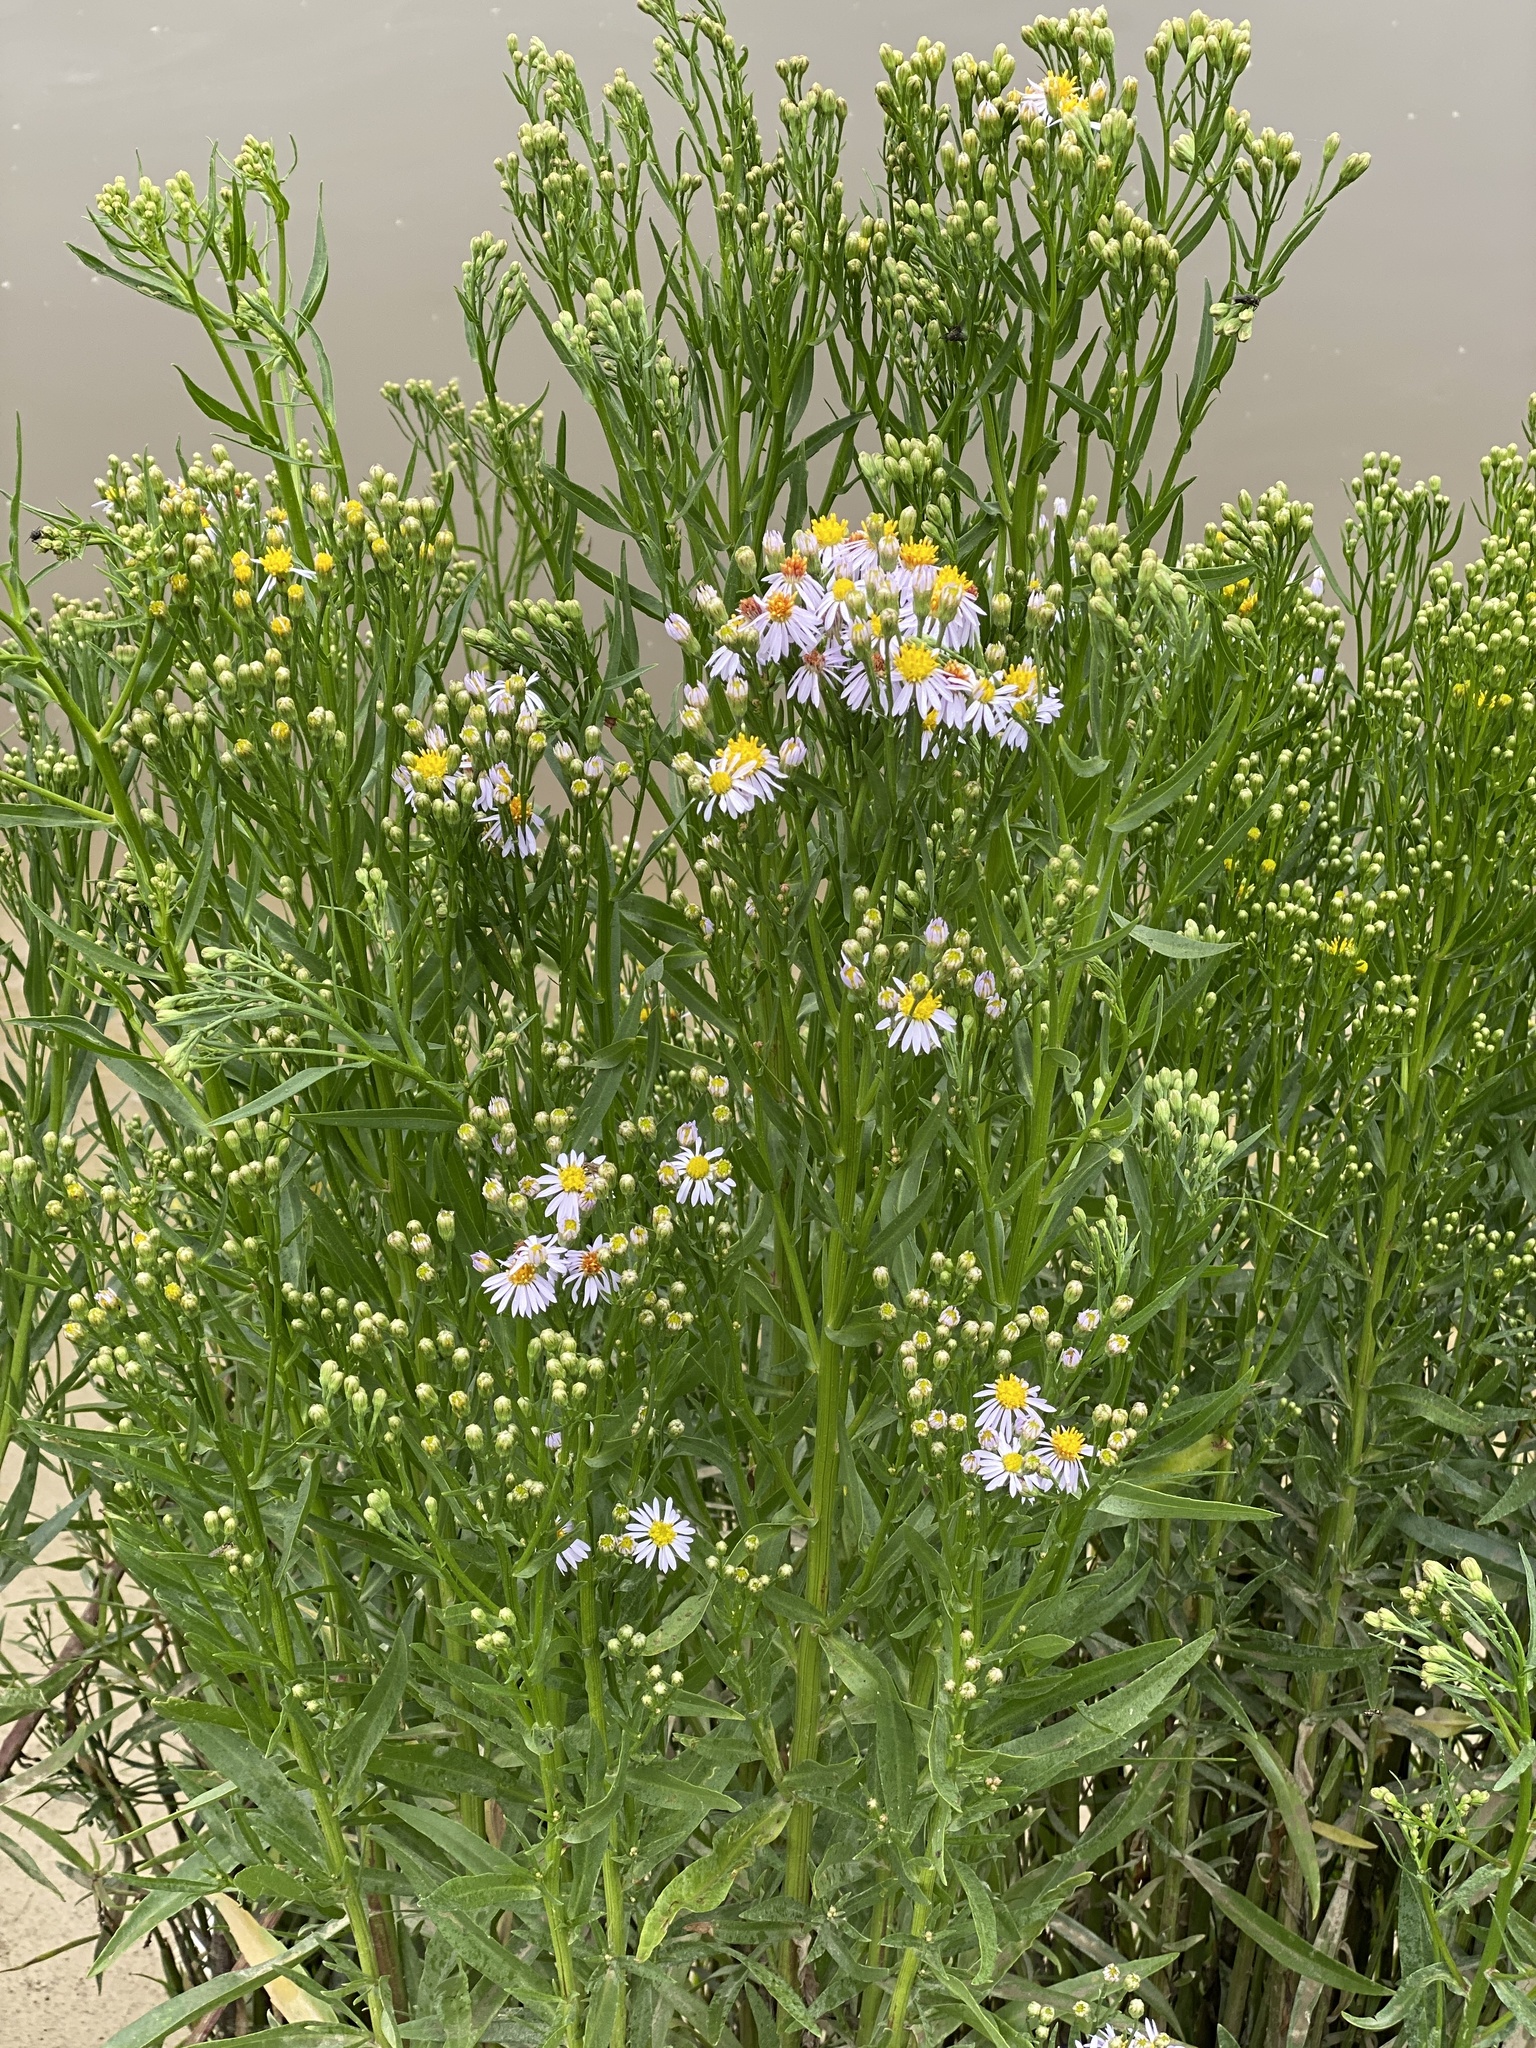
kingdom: Plantae
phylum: Tracheophyta
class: Magnoliopsida
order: Asterales
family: Asteraceae
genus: Tripolium
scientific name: Tripolium pannonicum
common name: Sea aster
